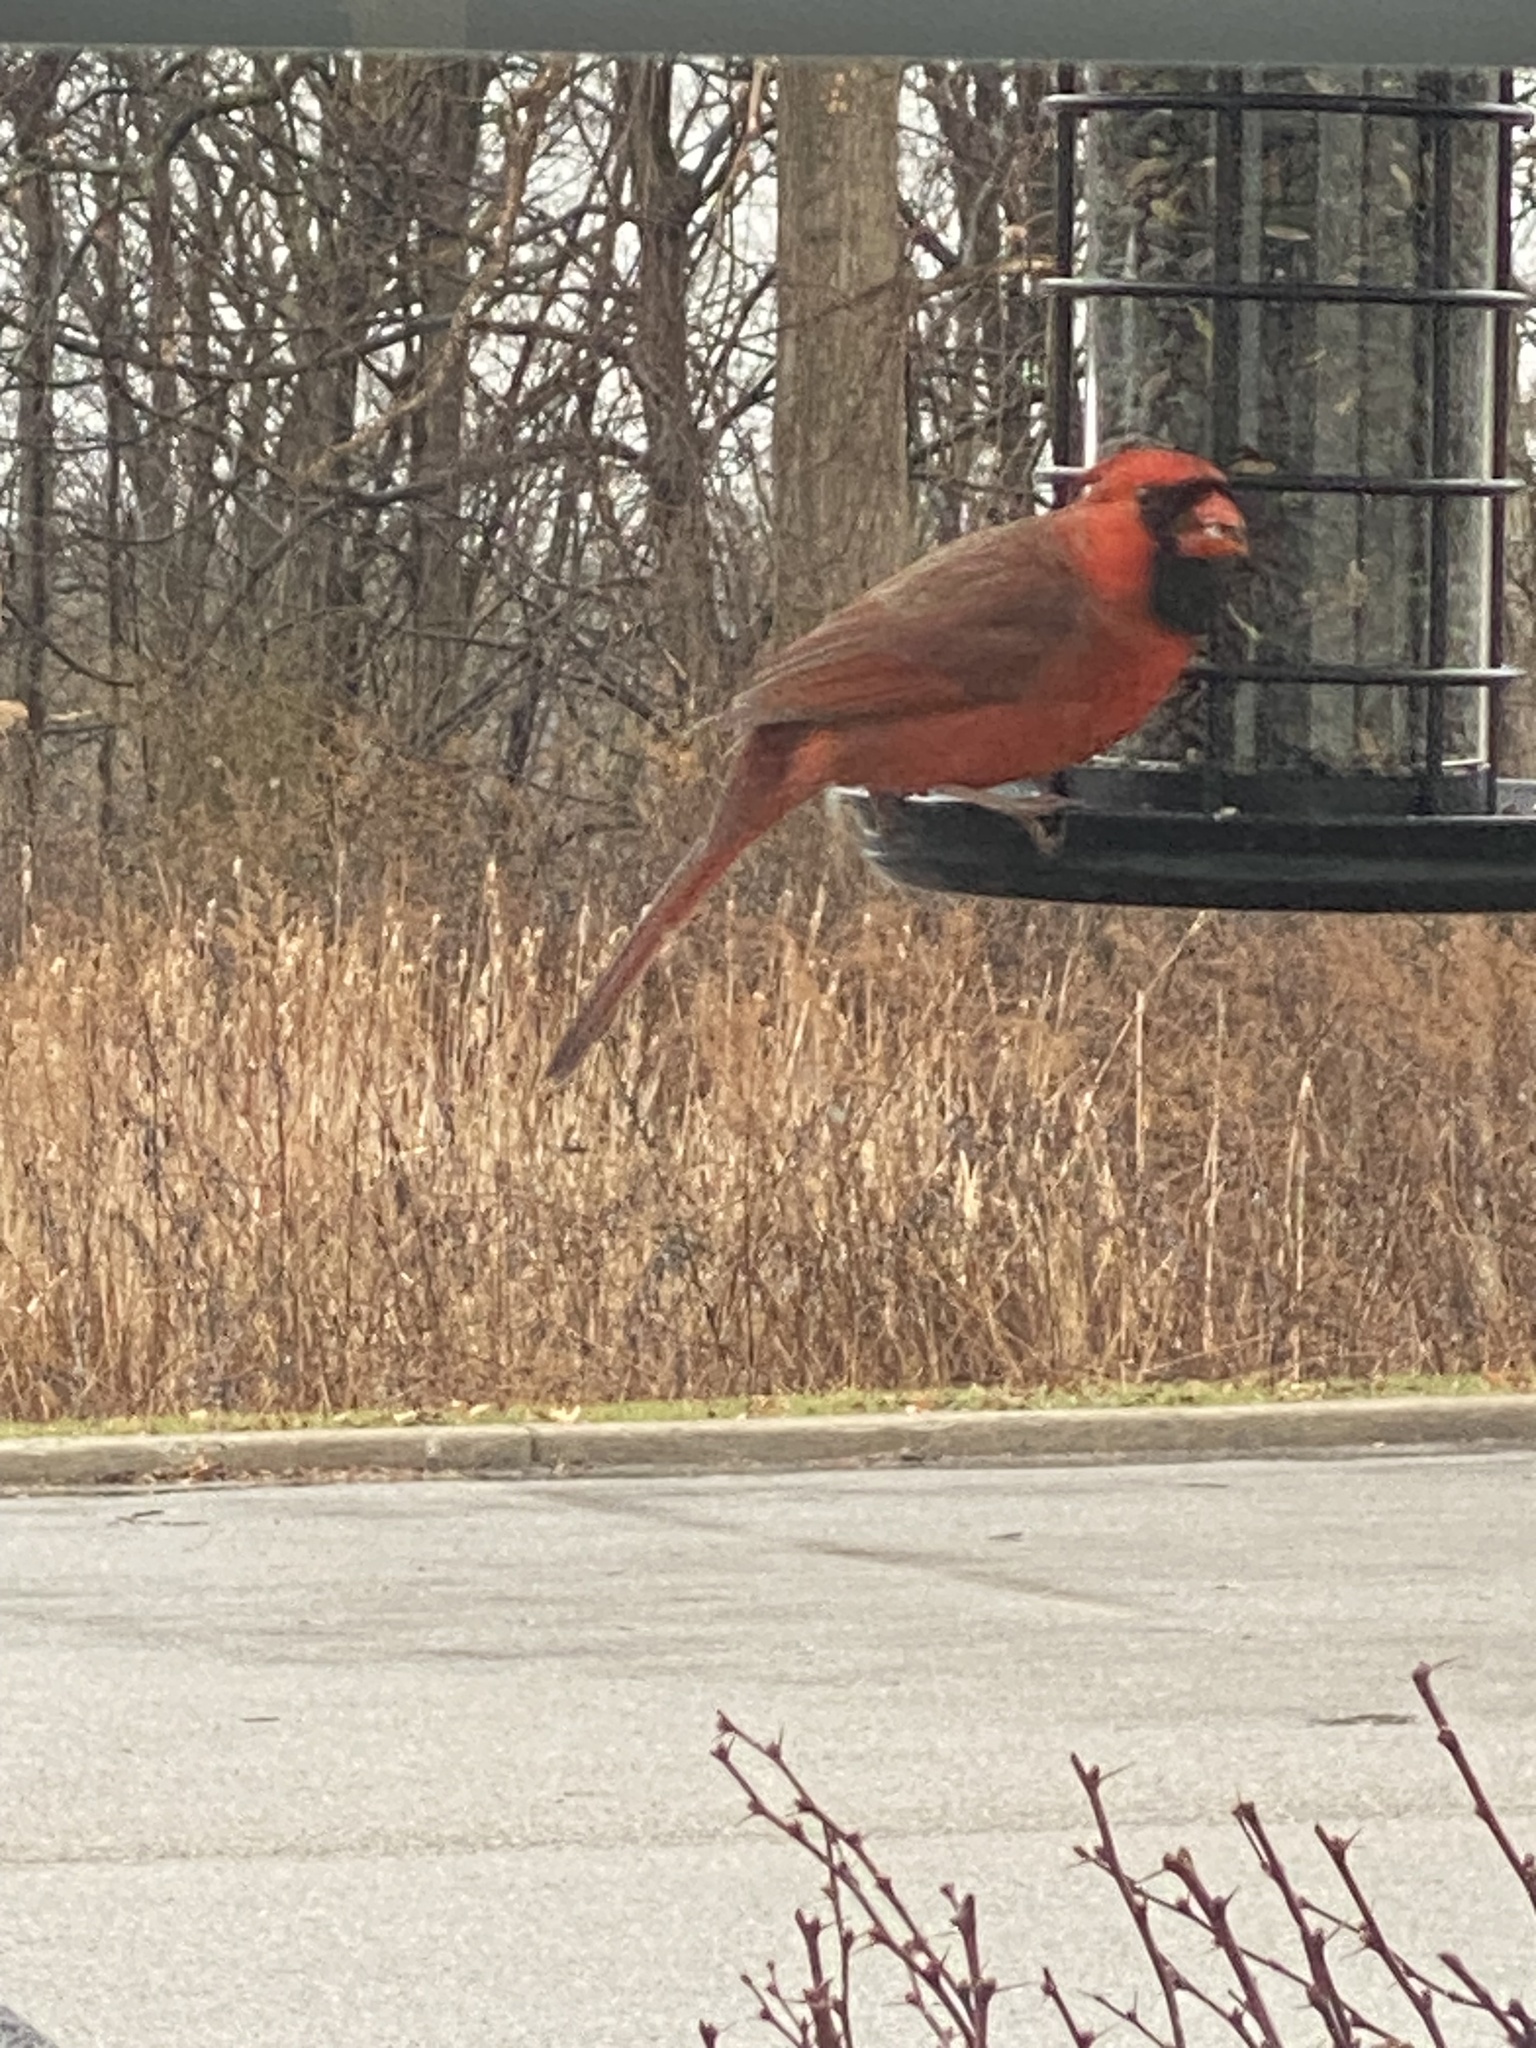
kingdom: Animalia
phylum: Chordata
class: Aves
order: Passeriformes
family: Cardinalidae
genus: Cardinalis
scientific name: Cardinalis cardinalis
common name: Northern cardinal
